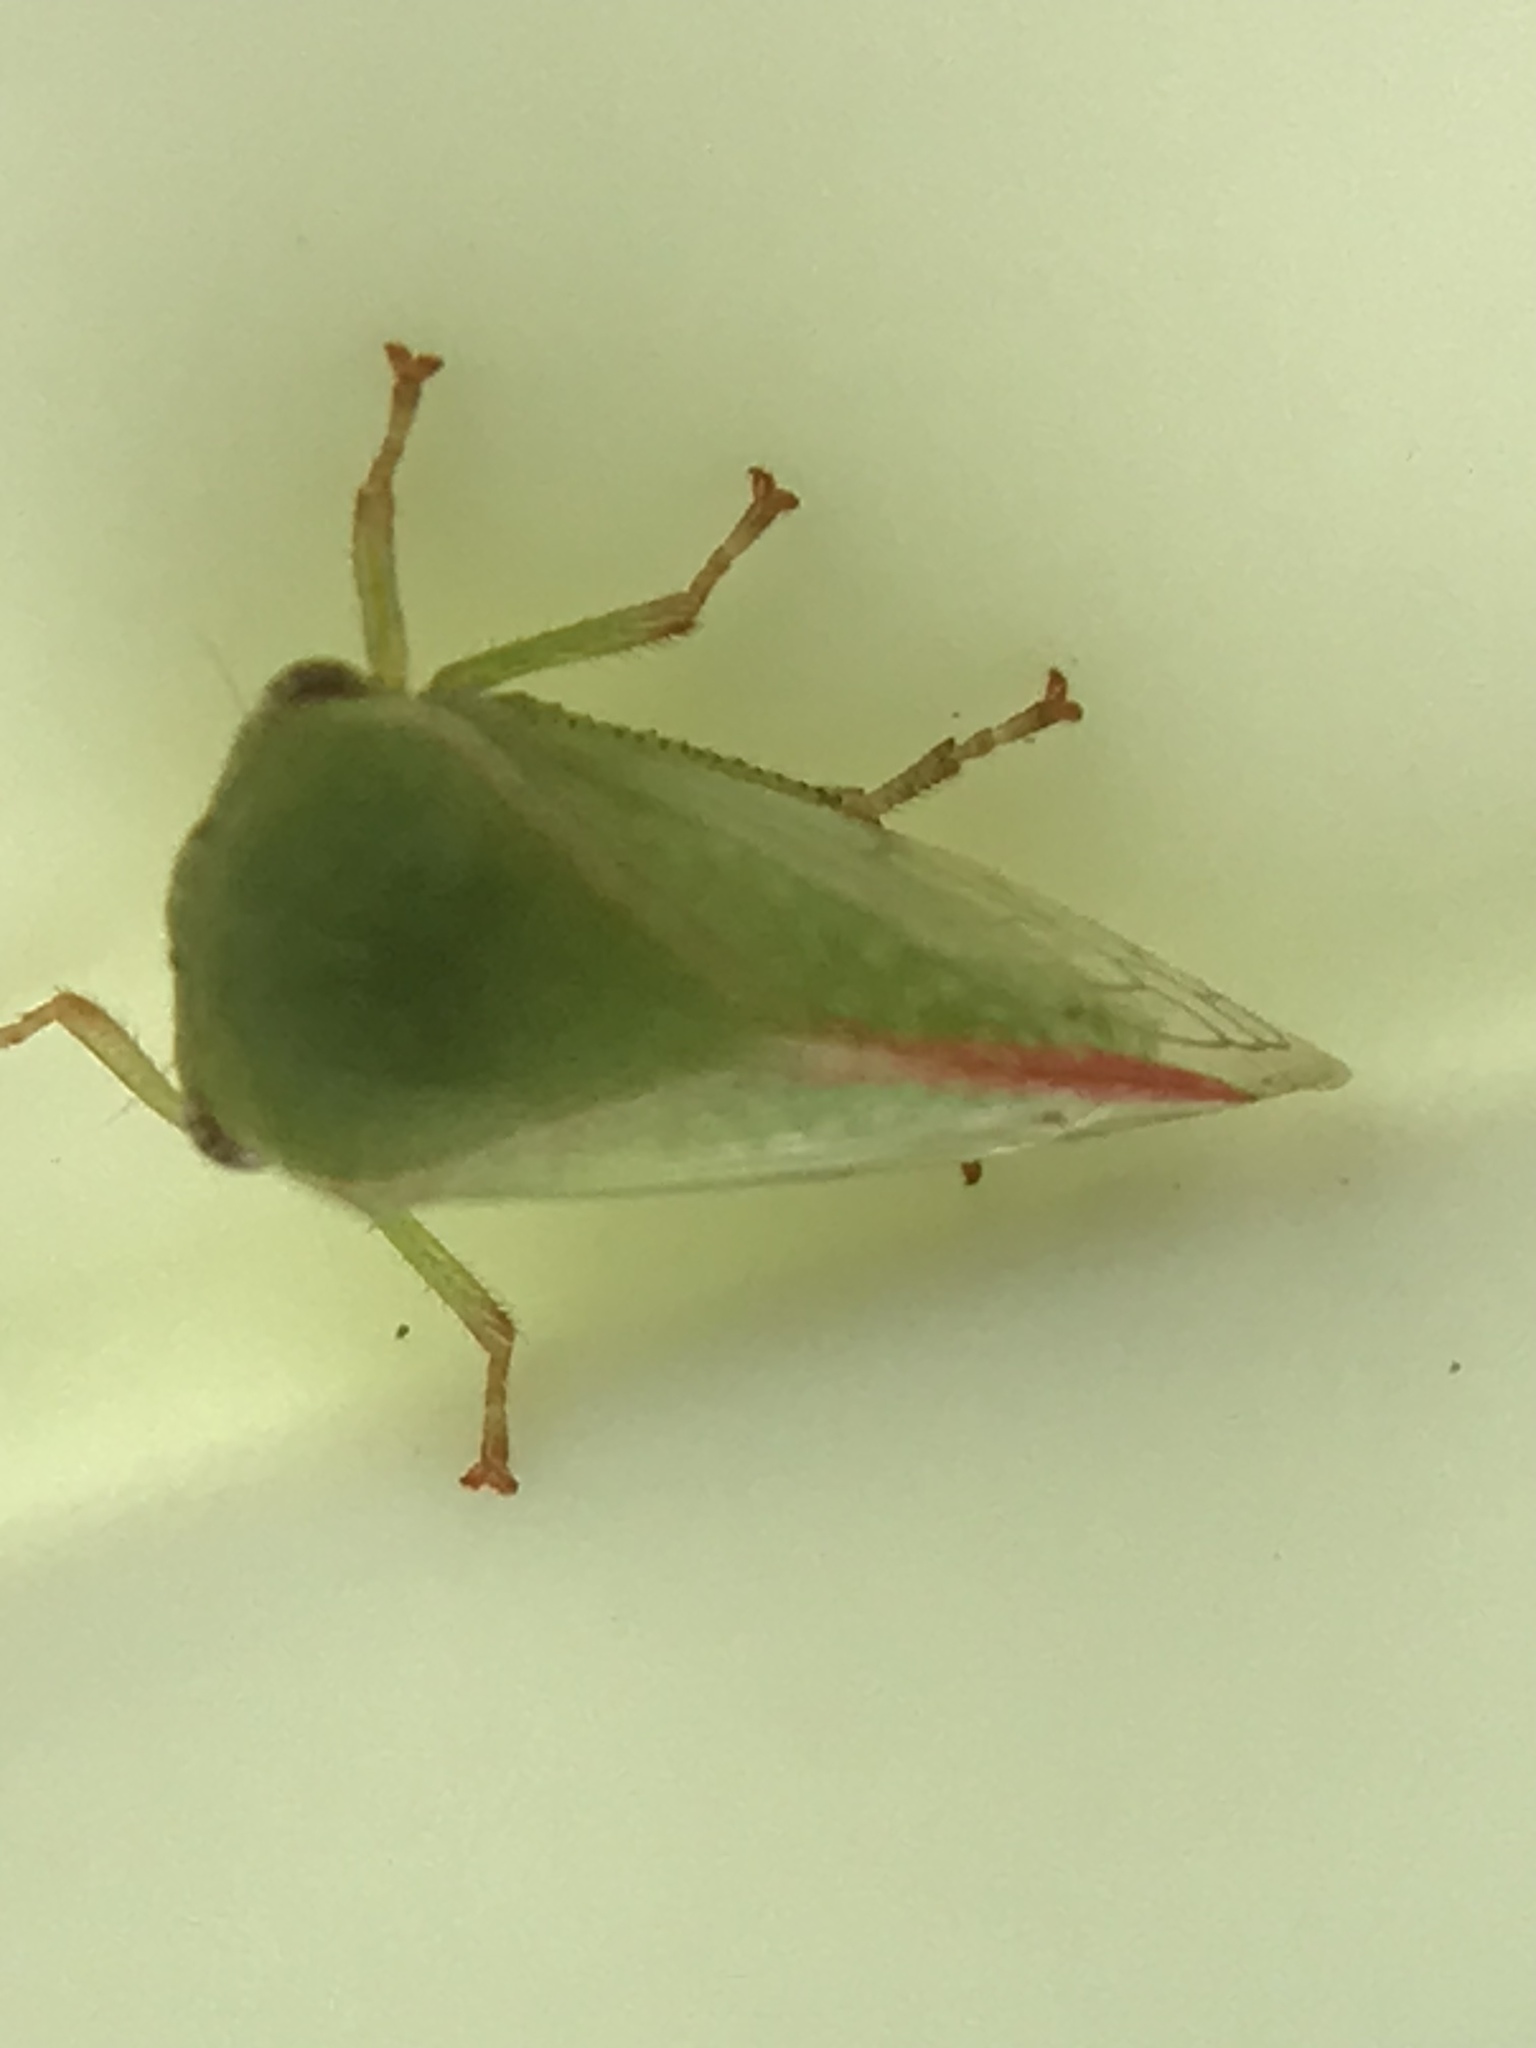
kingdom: Animalia
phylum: Arthropoda
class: Insecta
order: Hemiptera
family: Membracidae
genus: Spissistilus
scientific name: Spissistilus festina
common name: Membracid bug
